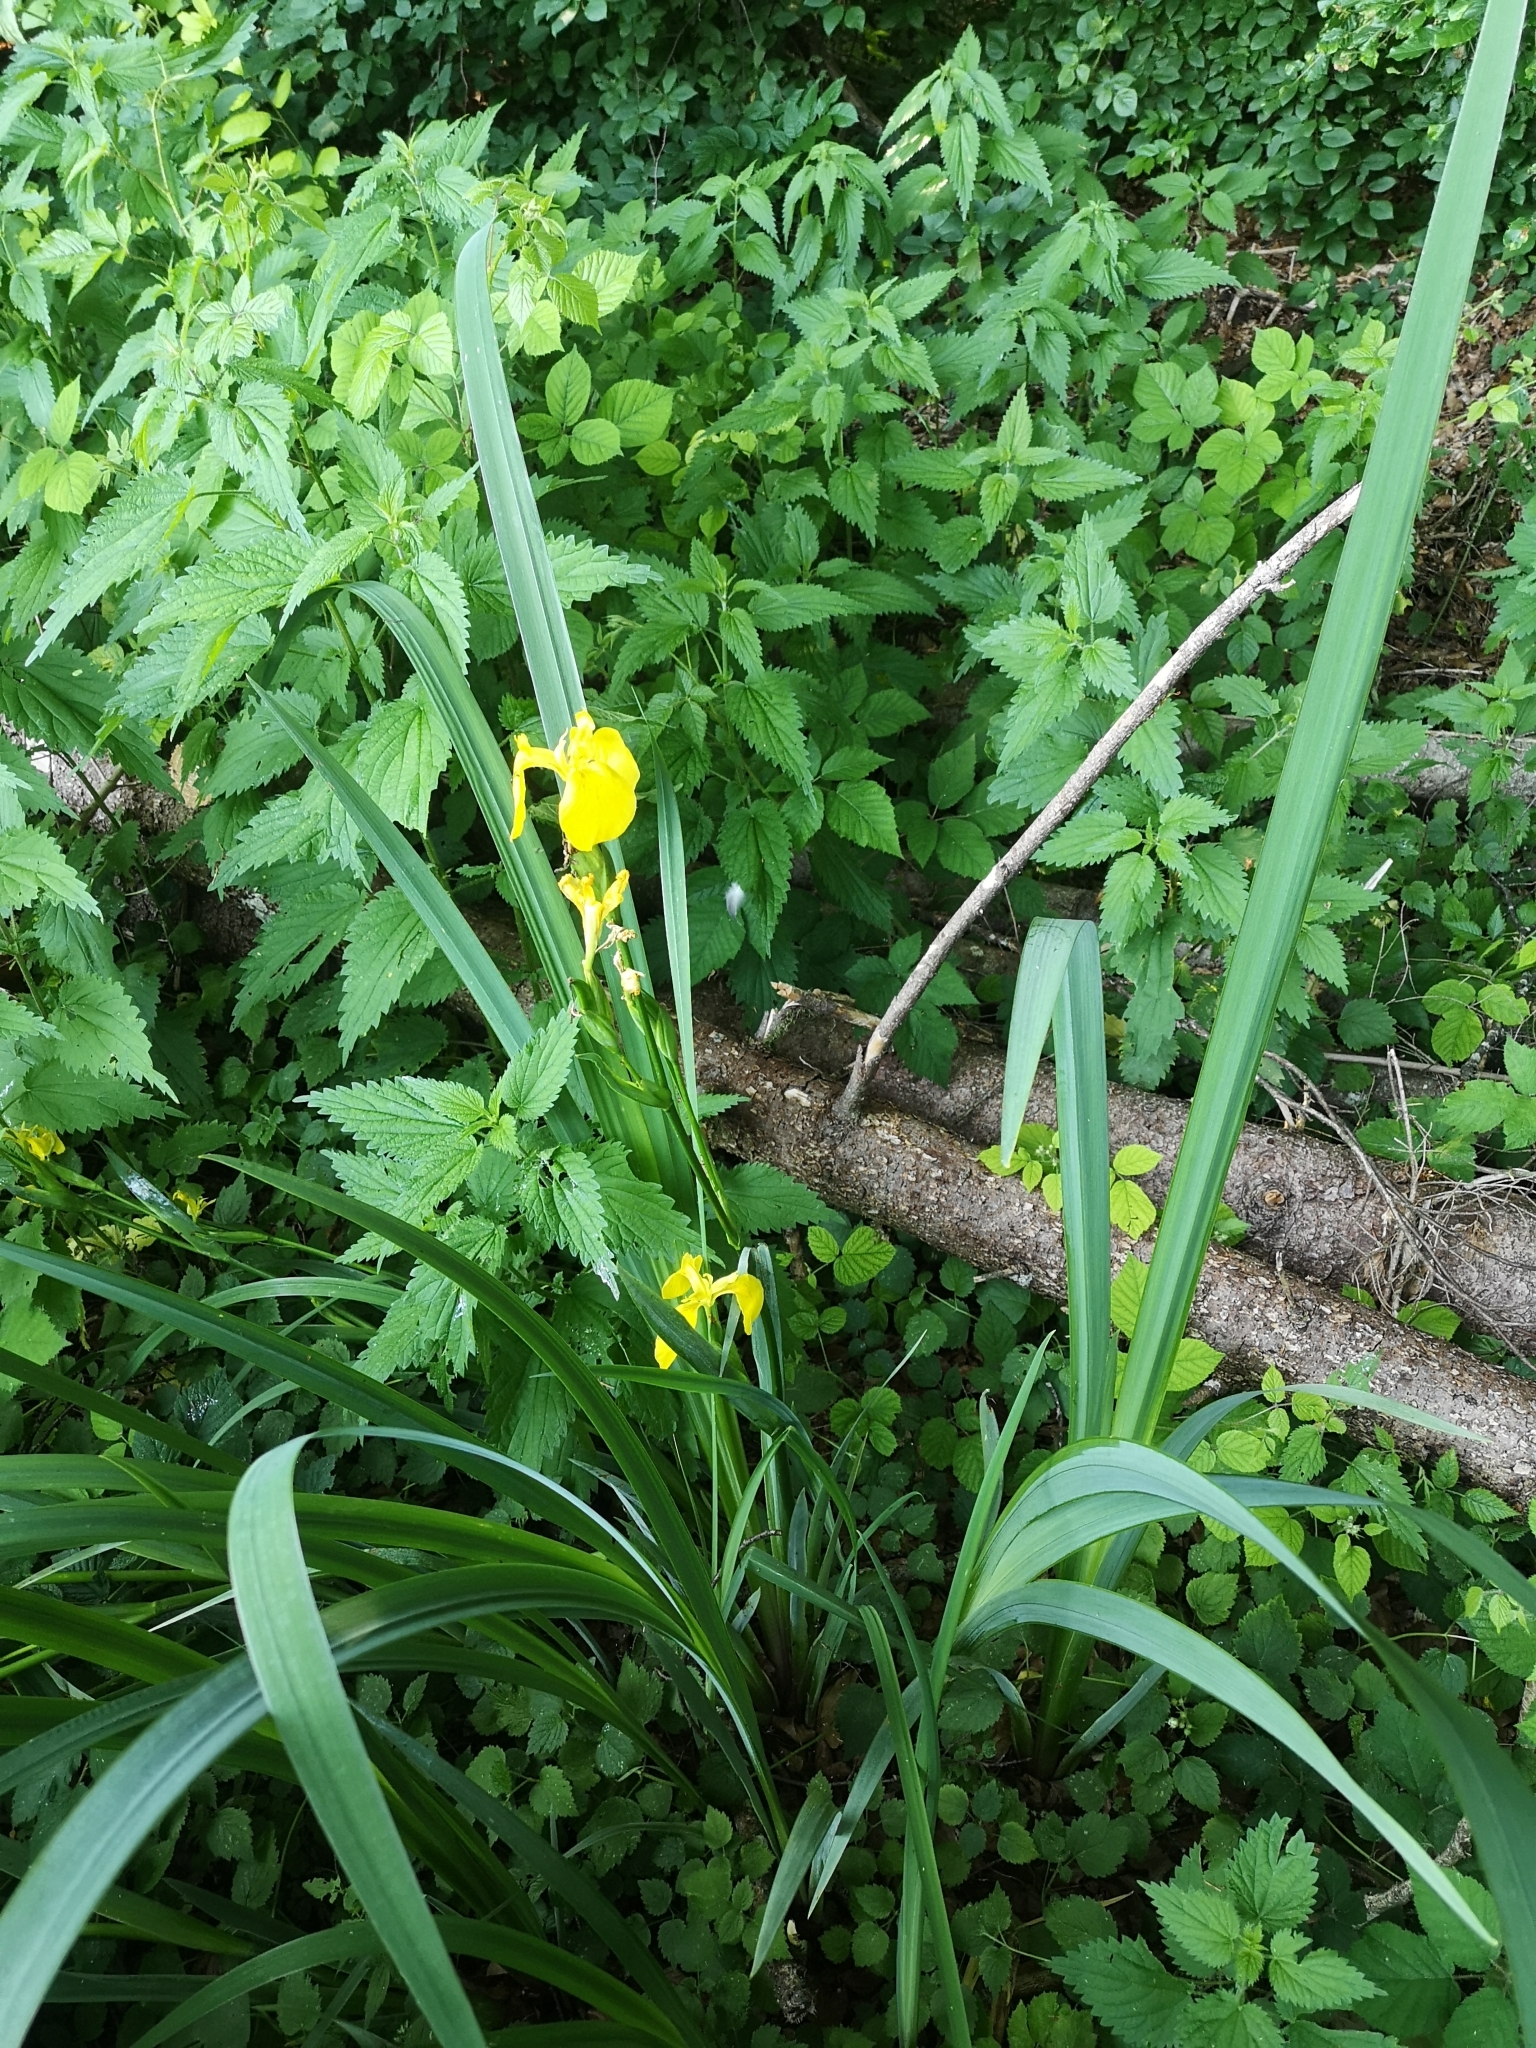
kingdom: Plantae
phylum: Tracheophyta
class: Liliopsida
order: Asparagales
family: Iridaceae
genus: Iris
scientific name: Iris pseudacorus
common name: Yellow flag
